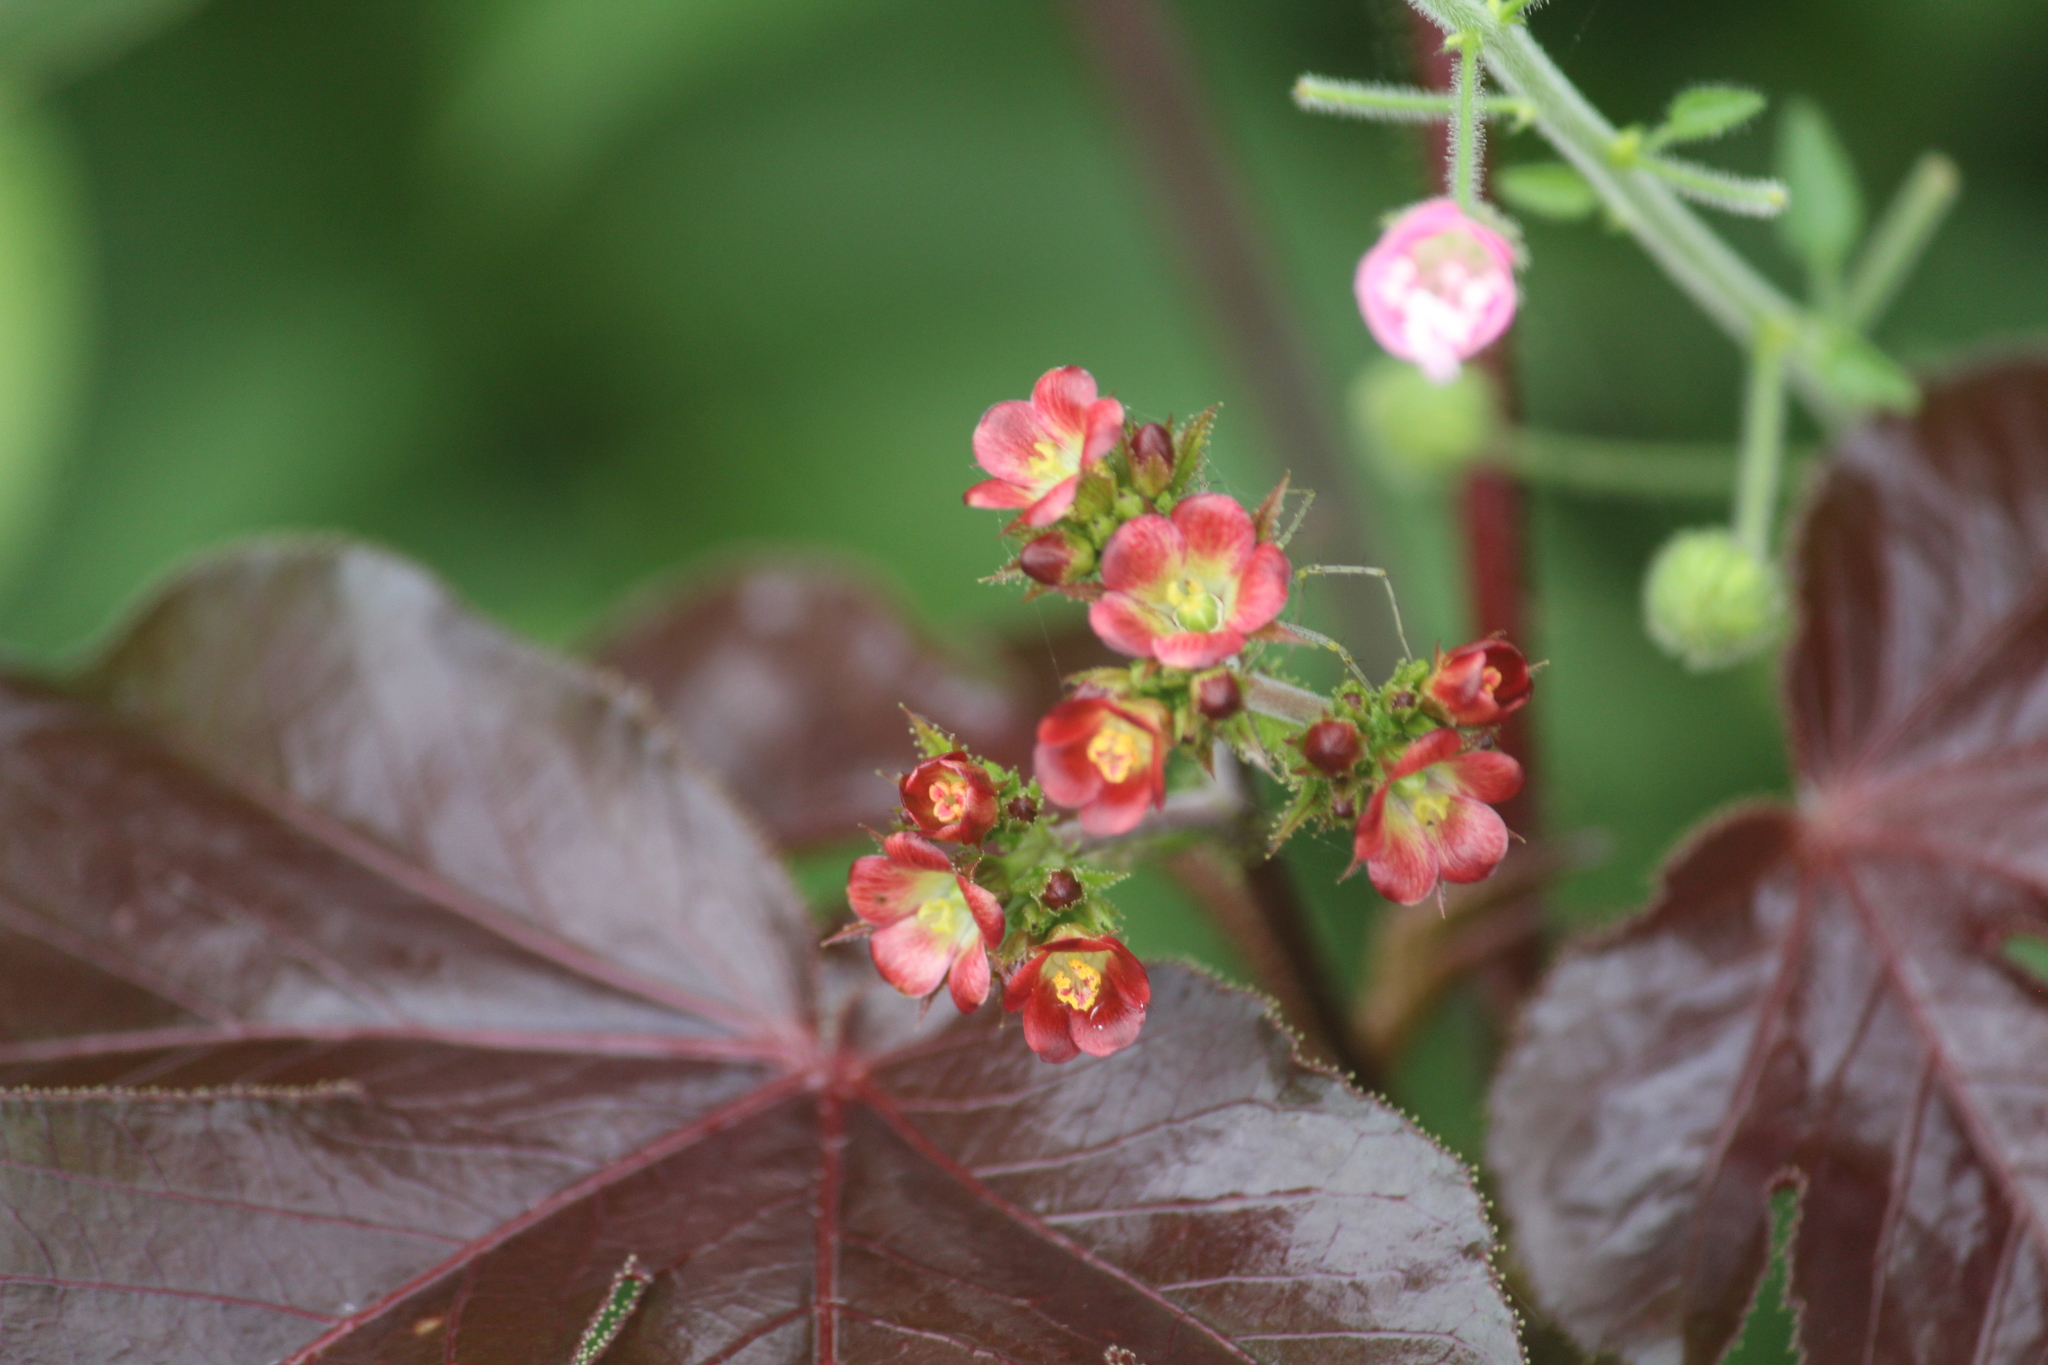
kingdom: Plantae
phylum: Tracheophyta
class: Magnoliopsida
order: Malpighiales
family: Euphorbiaceae
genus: Jatropha
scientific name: Jatropha gossypiifolia
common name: Bellyache bush
